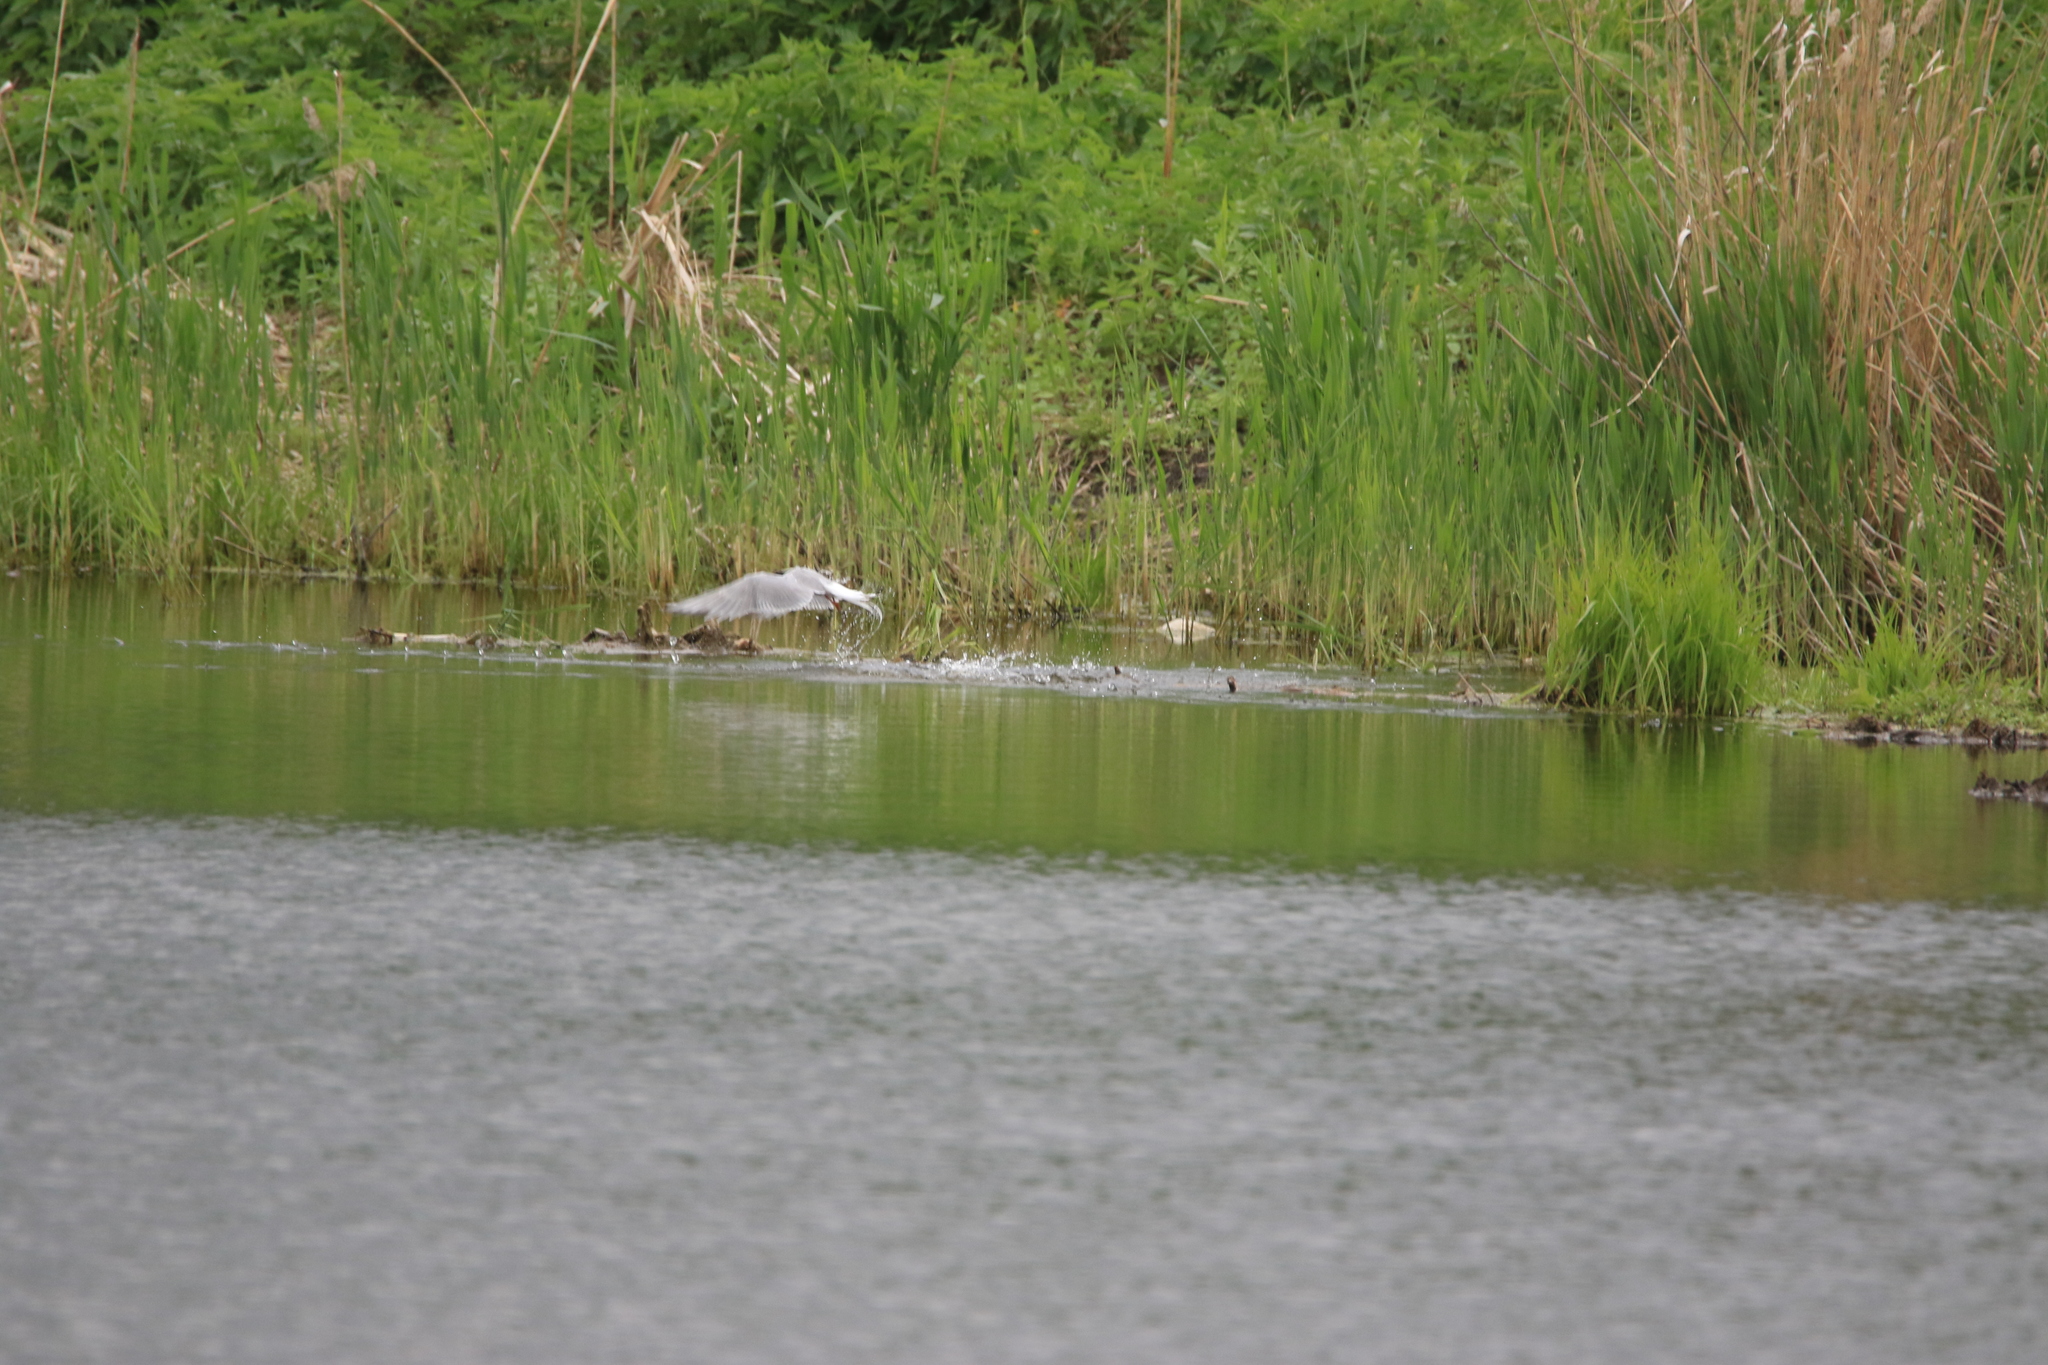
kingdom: Animalia
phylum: Chordata
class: Aves
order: Charadriiformes
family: Laridae
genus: Sterna
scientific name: Sterna hirundo
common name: Common tern
